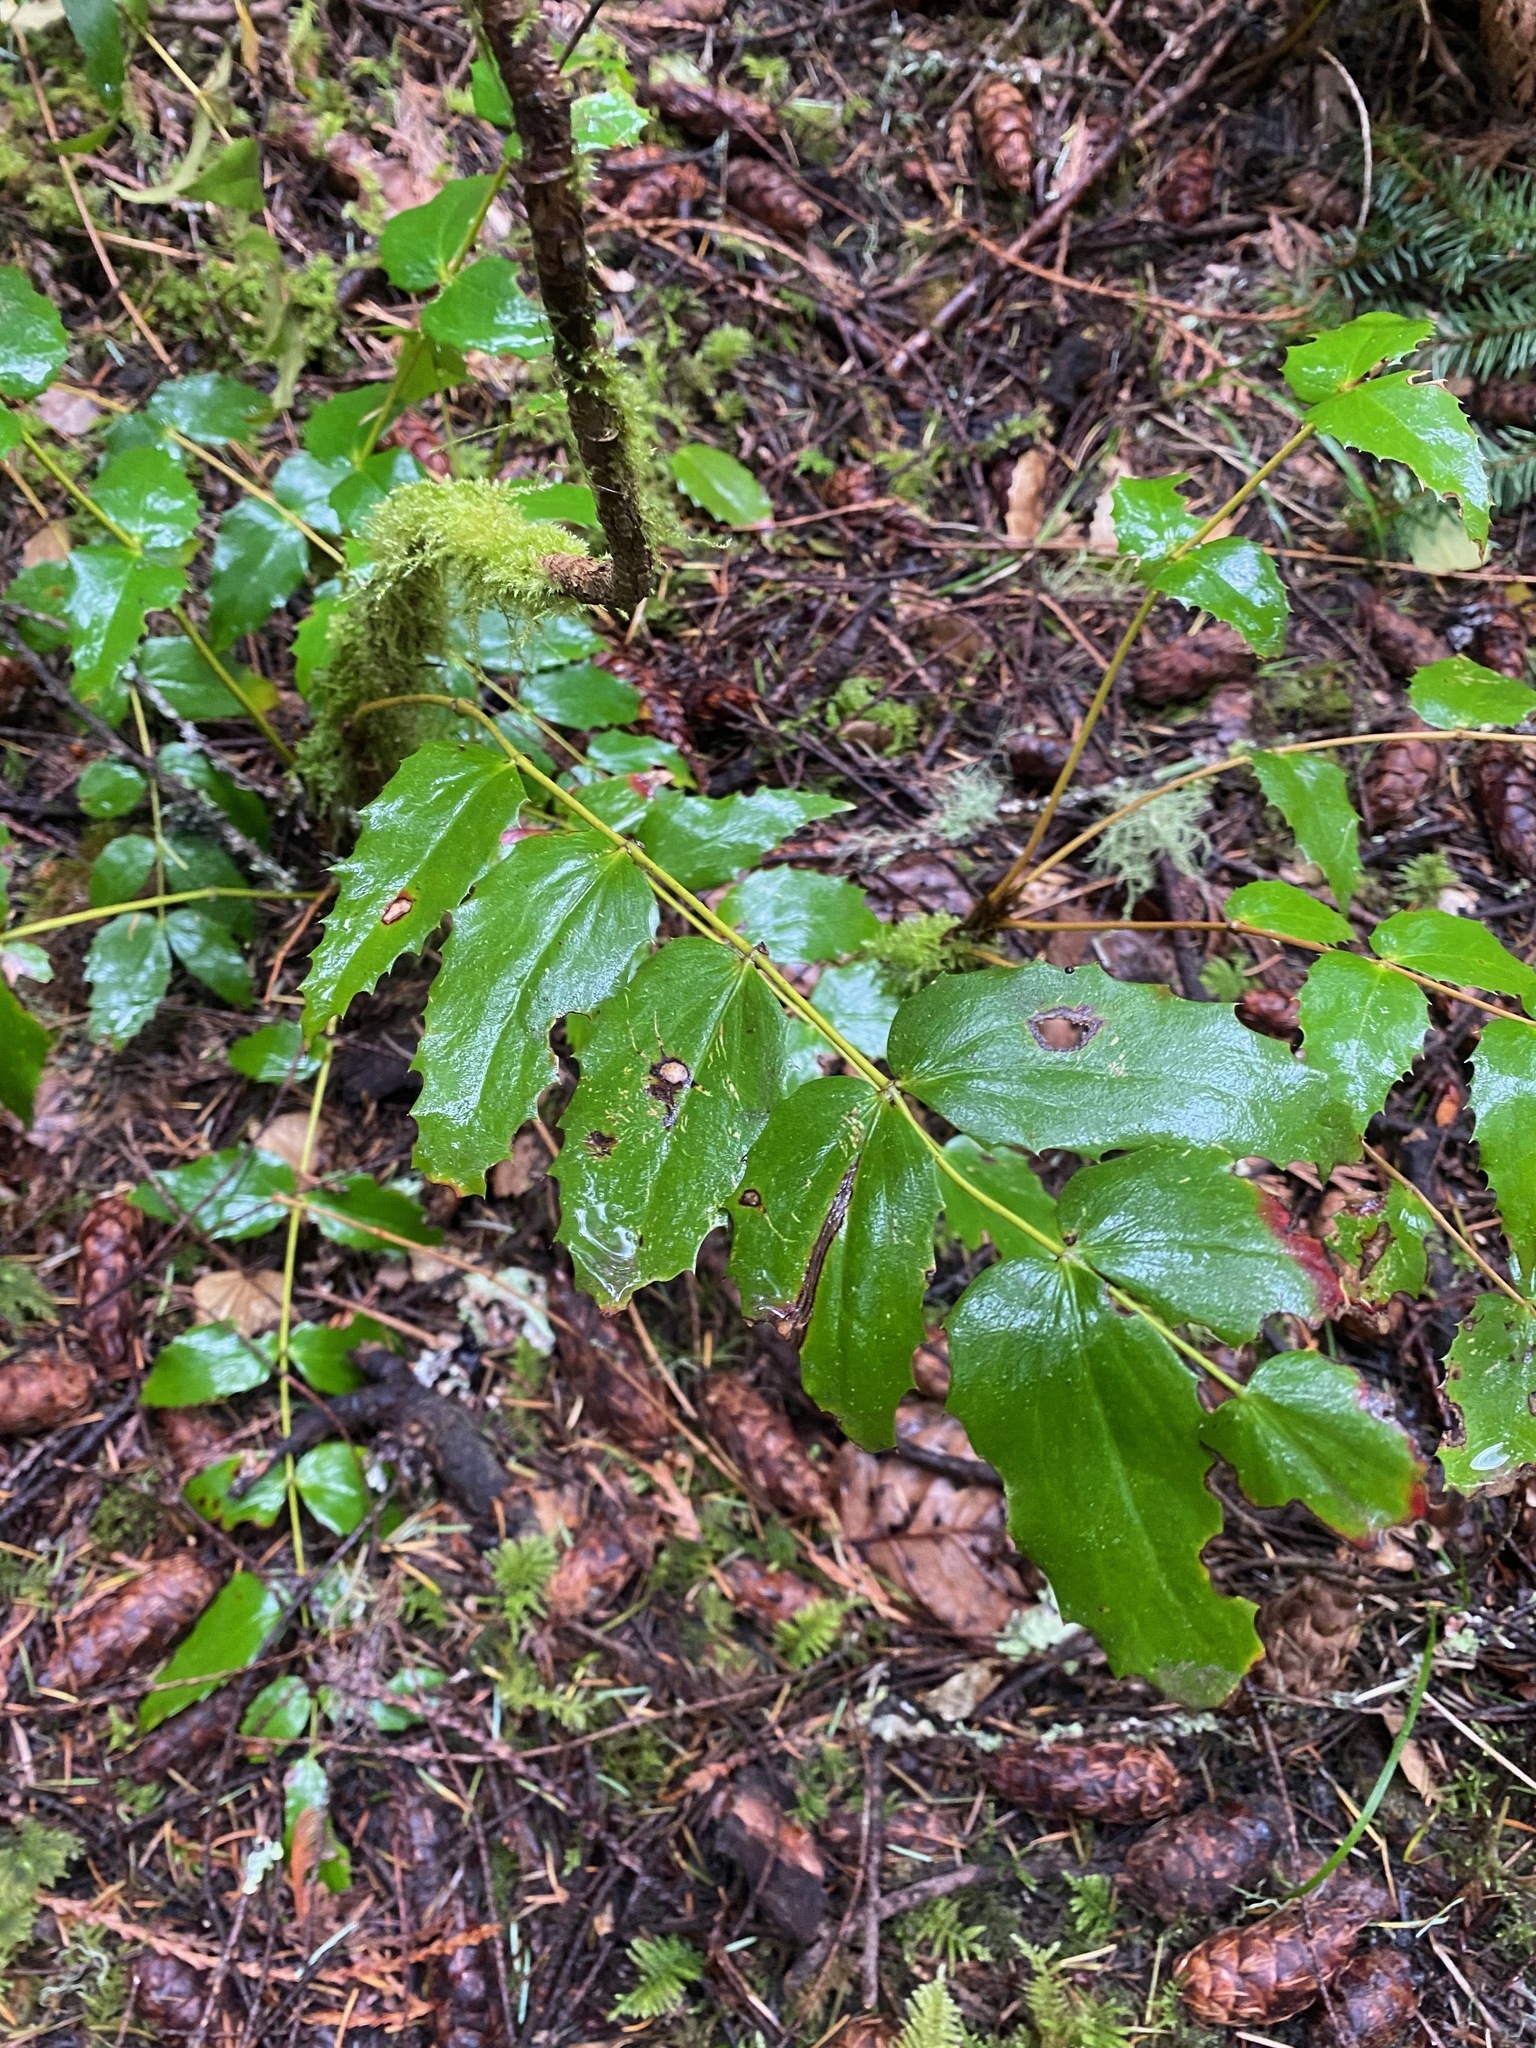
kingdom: Plantae
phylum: Tracheophyta
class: Magnoliopsida
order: Ranunculales
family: Berberidaceae
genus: Mahonia
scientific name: Mahonia nervosa
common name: Cascade oregon-grape
